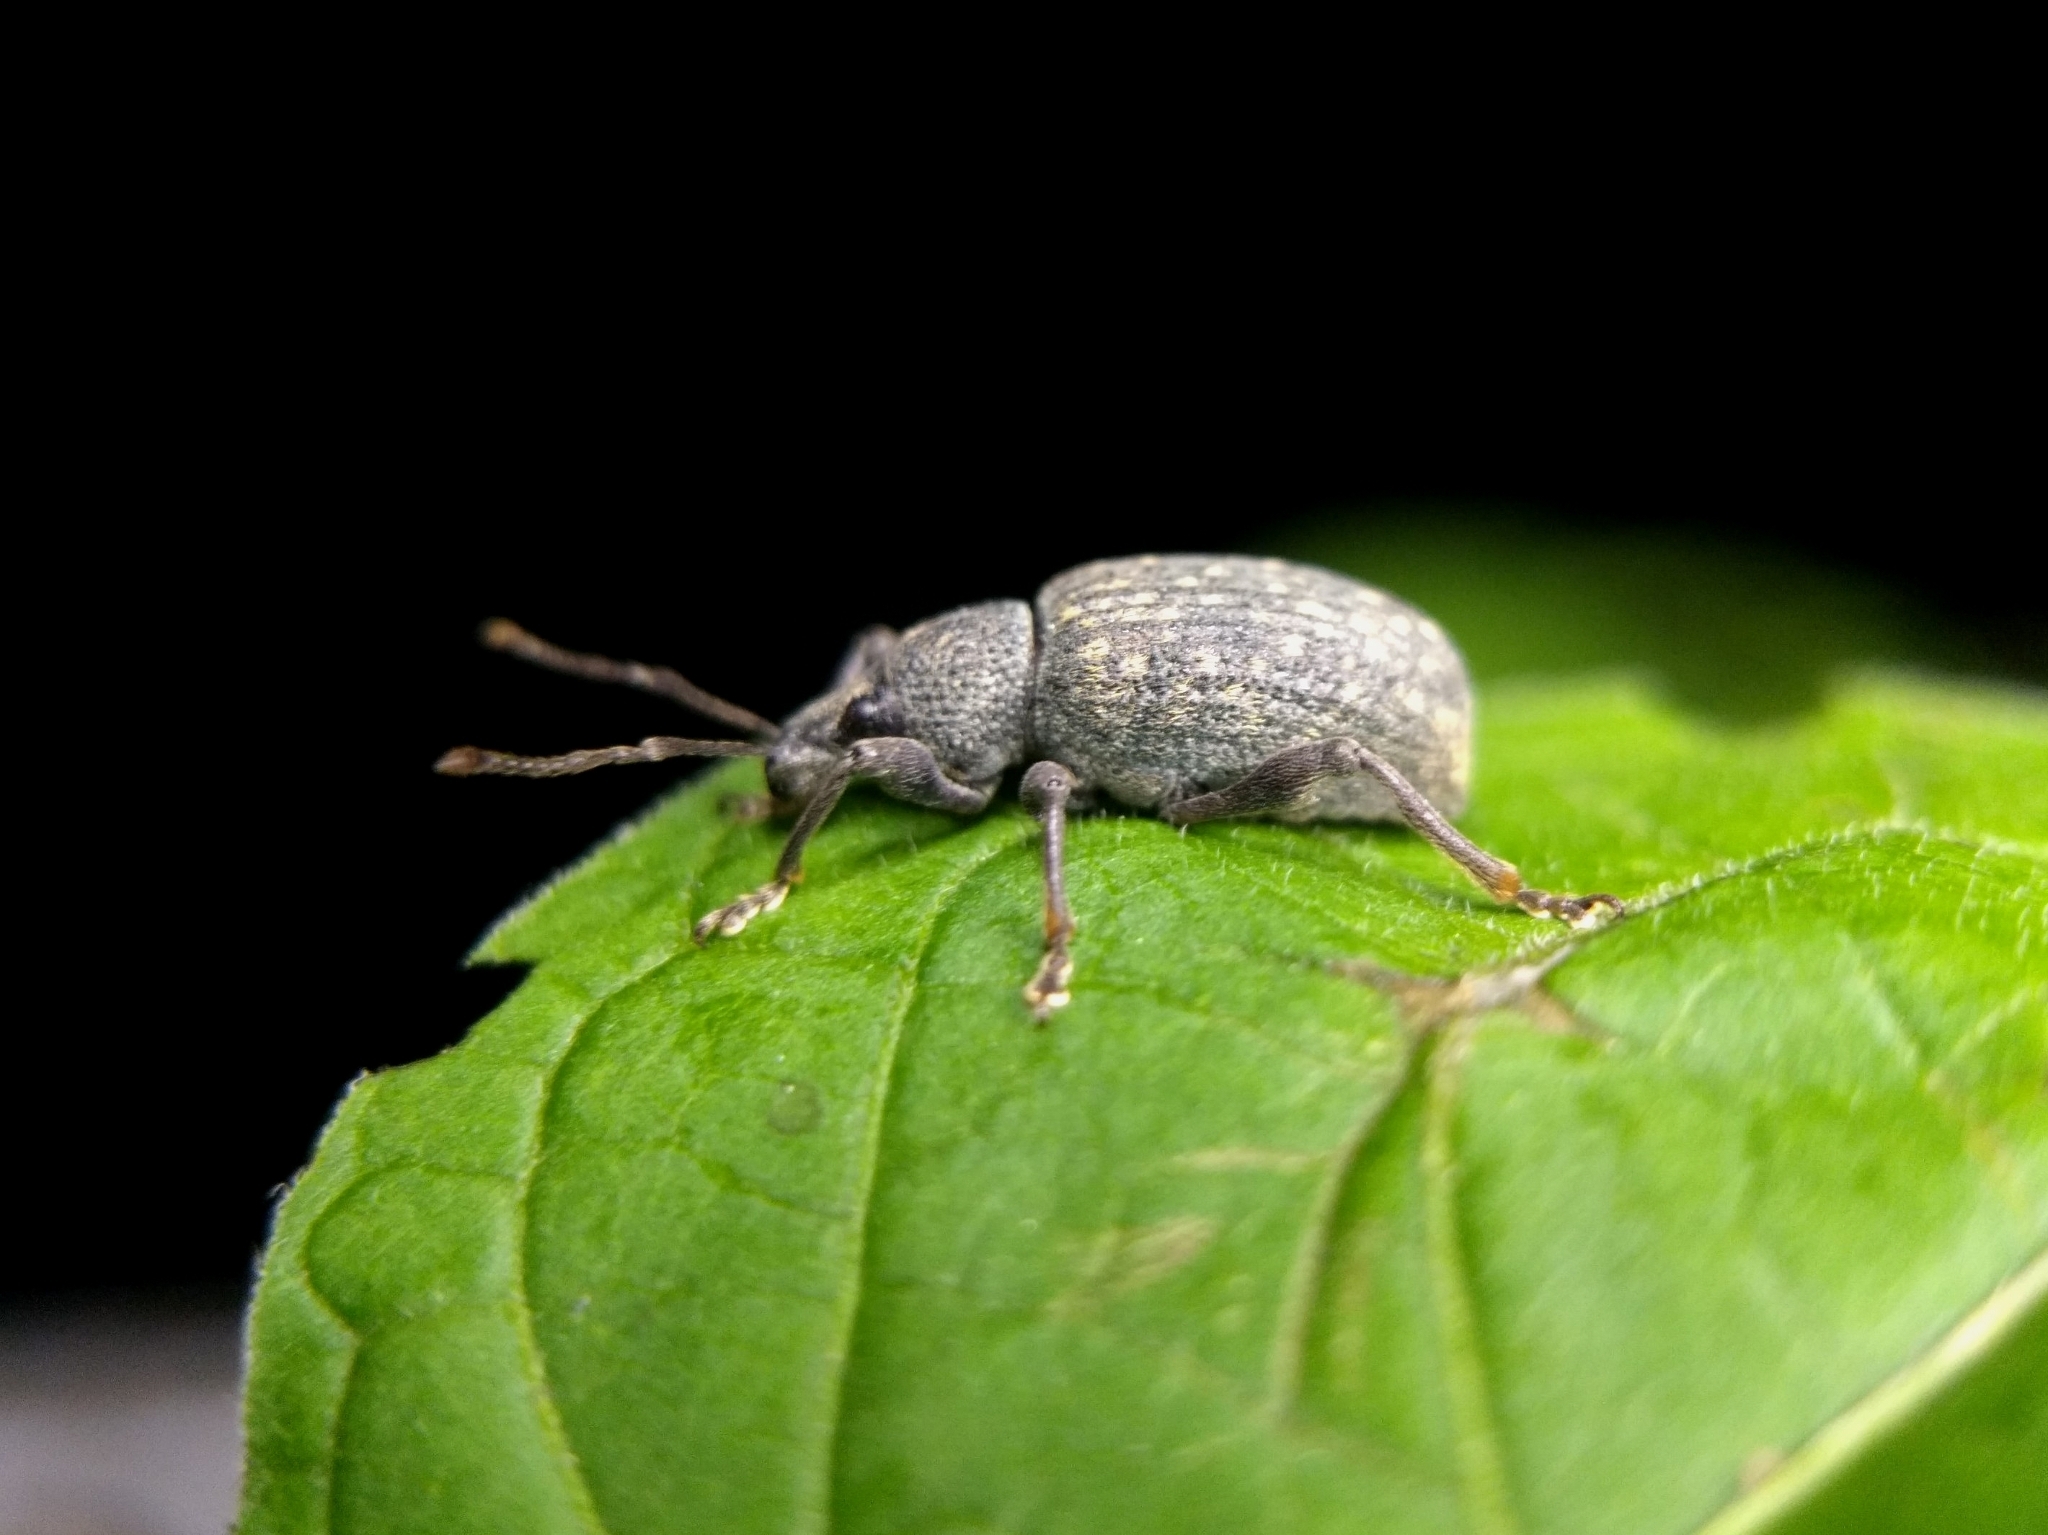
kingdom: Animalia
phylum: Arthropoda
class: Insecta
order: Coleoptera
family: Curculionidae
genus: Otiorhynchus
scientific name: Otiorhynchus sulcatus
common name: Black vine weevil
